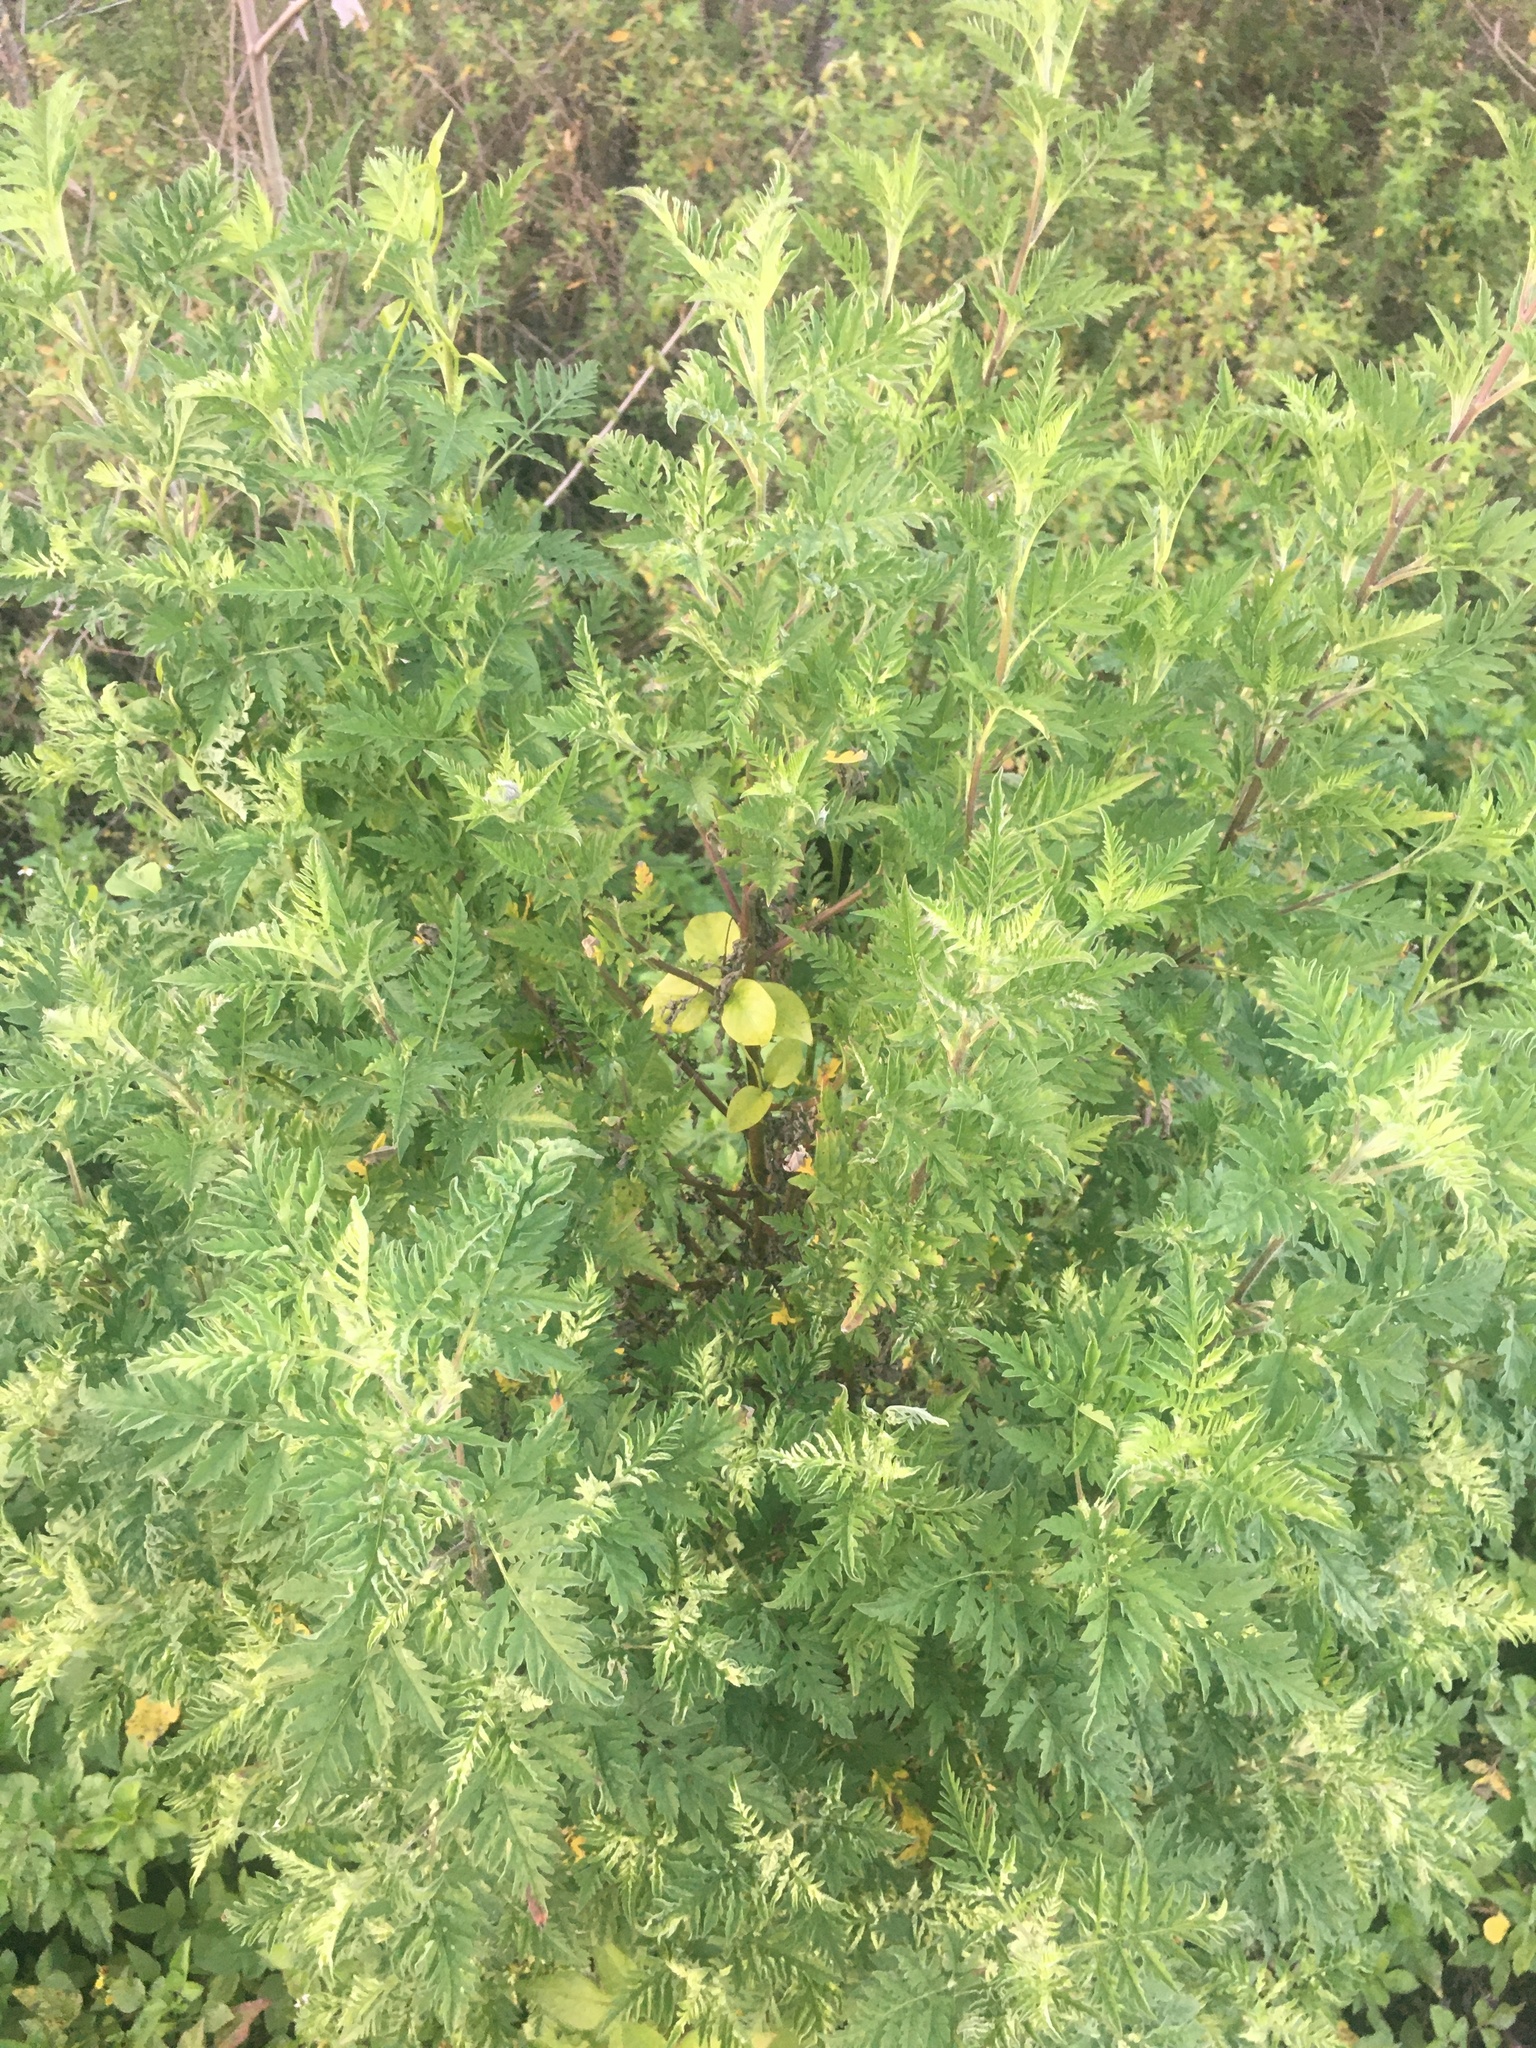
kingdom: Plantae
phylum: Tracheophyta
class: Magnoliopsida
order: Asterales
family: Asteraceae
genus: Ambrosia
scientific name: Ambrosia artemisiifolia
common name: Annual ragweed
